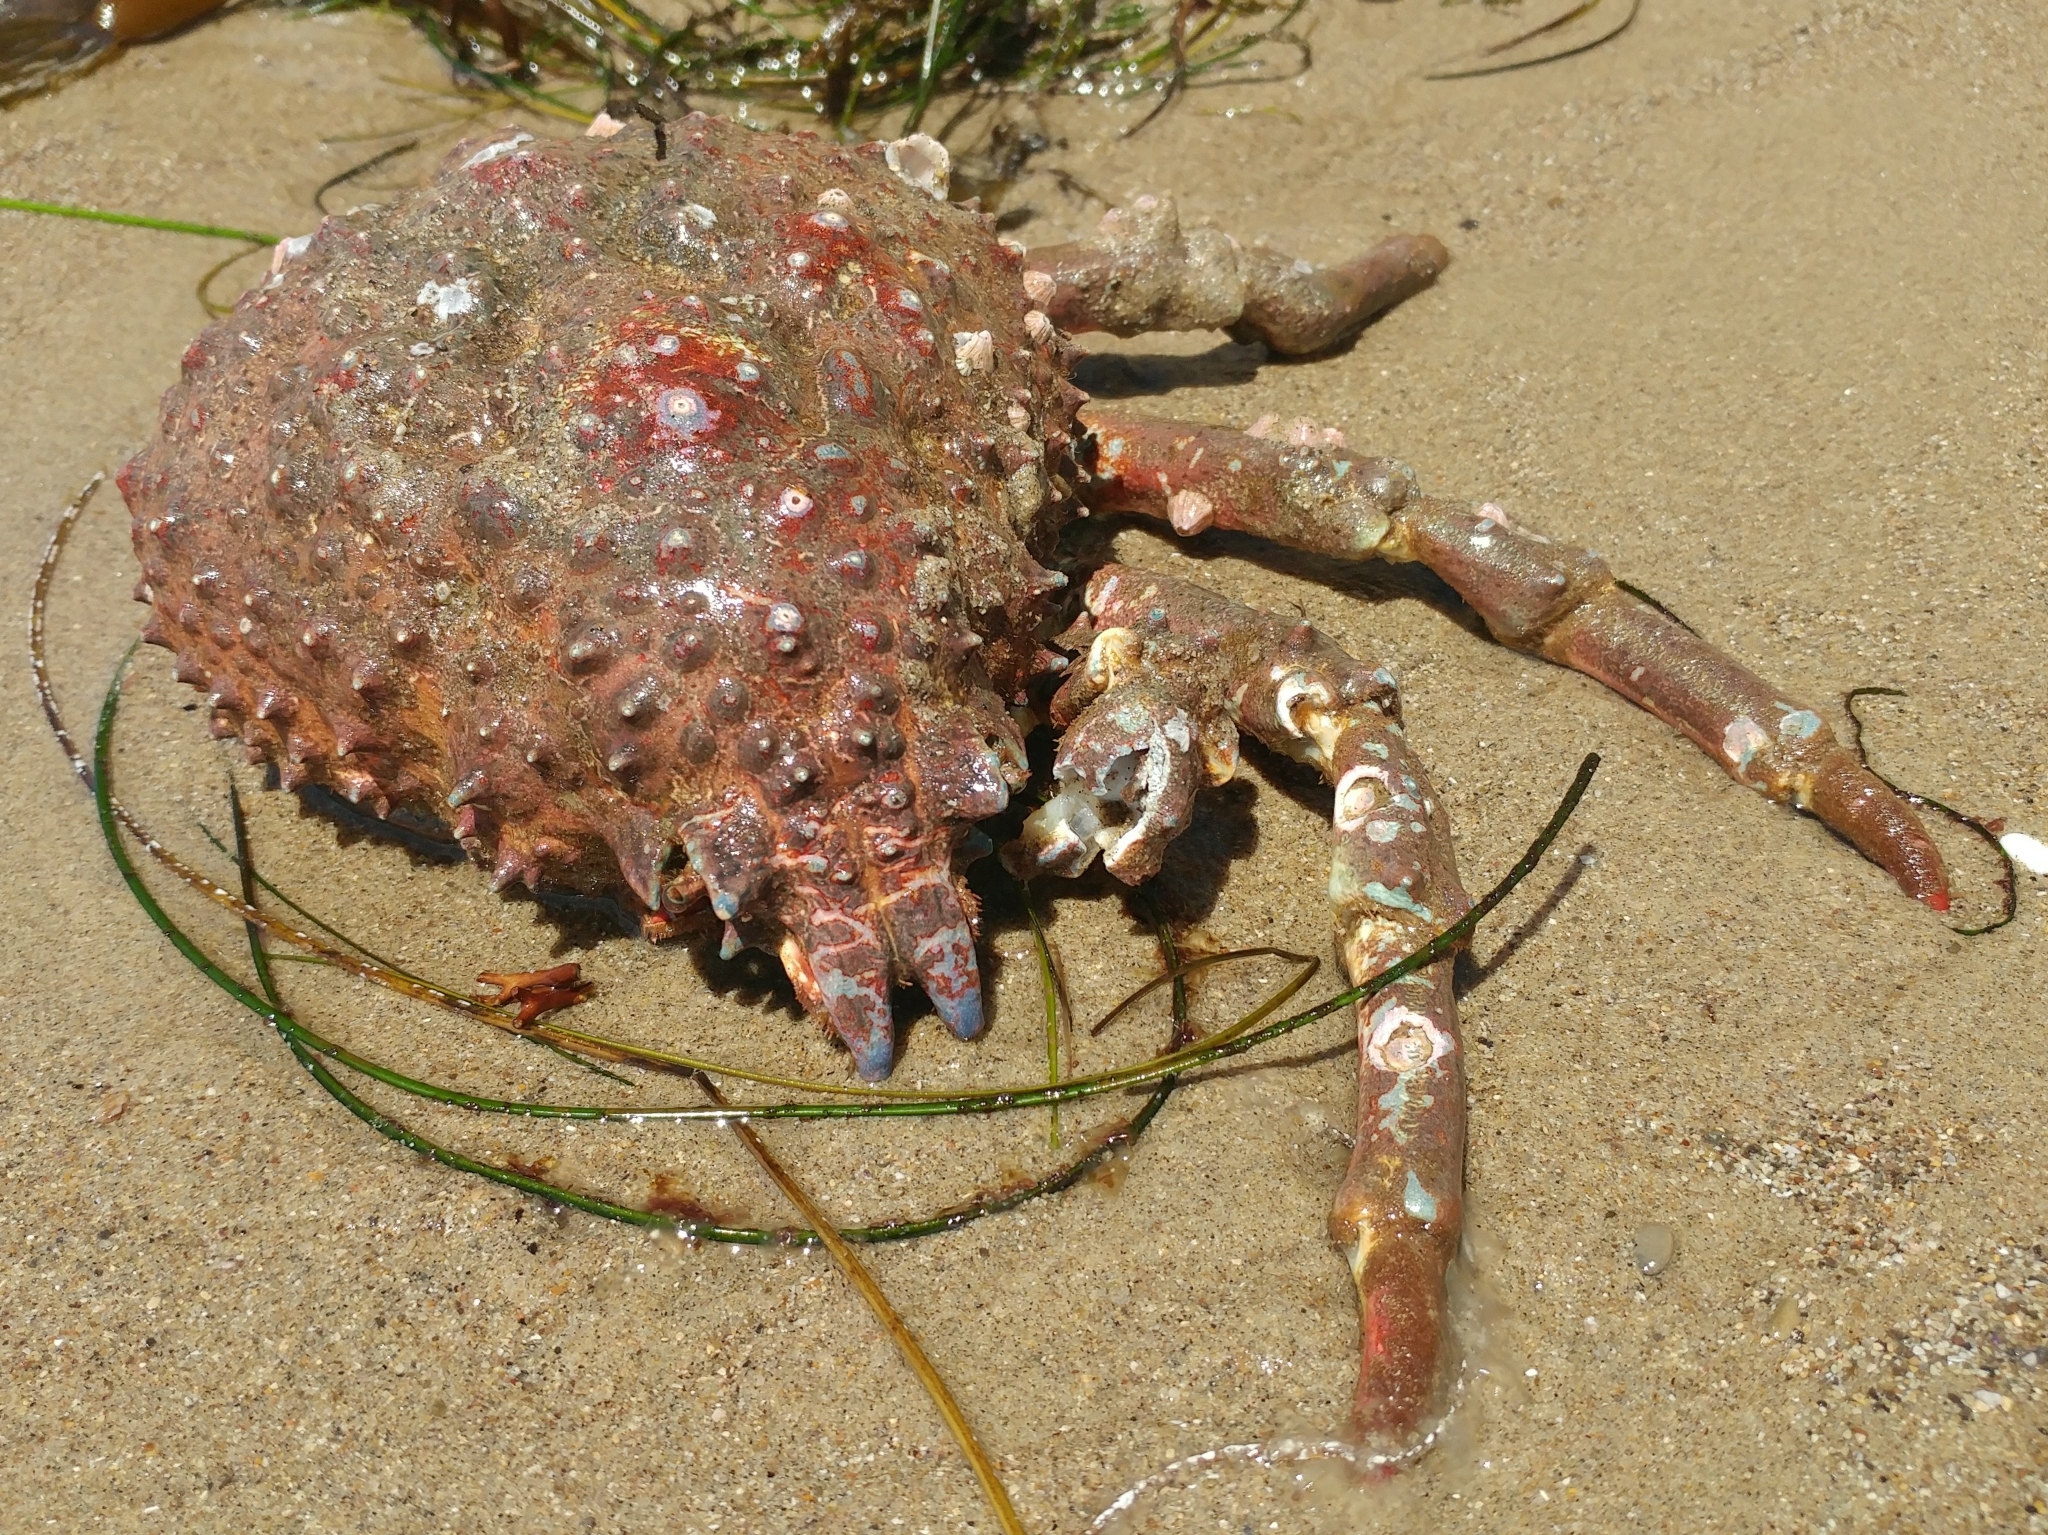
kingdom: Animalia
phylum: Arthropoda
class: Malacostraca
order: Decapoda
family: Epialtidae
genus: Loxorhynchus
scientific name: Loxorhynchus grandis
